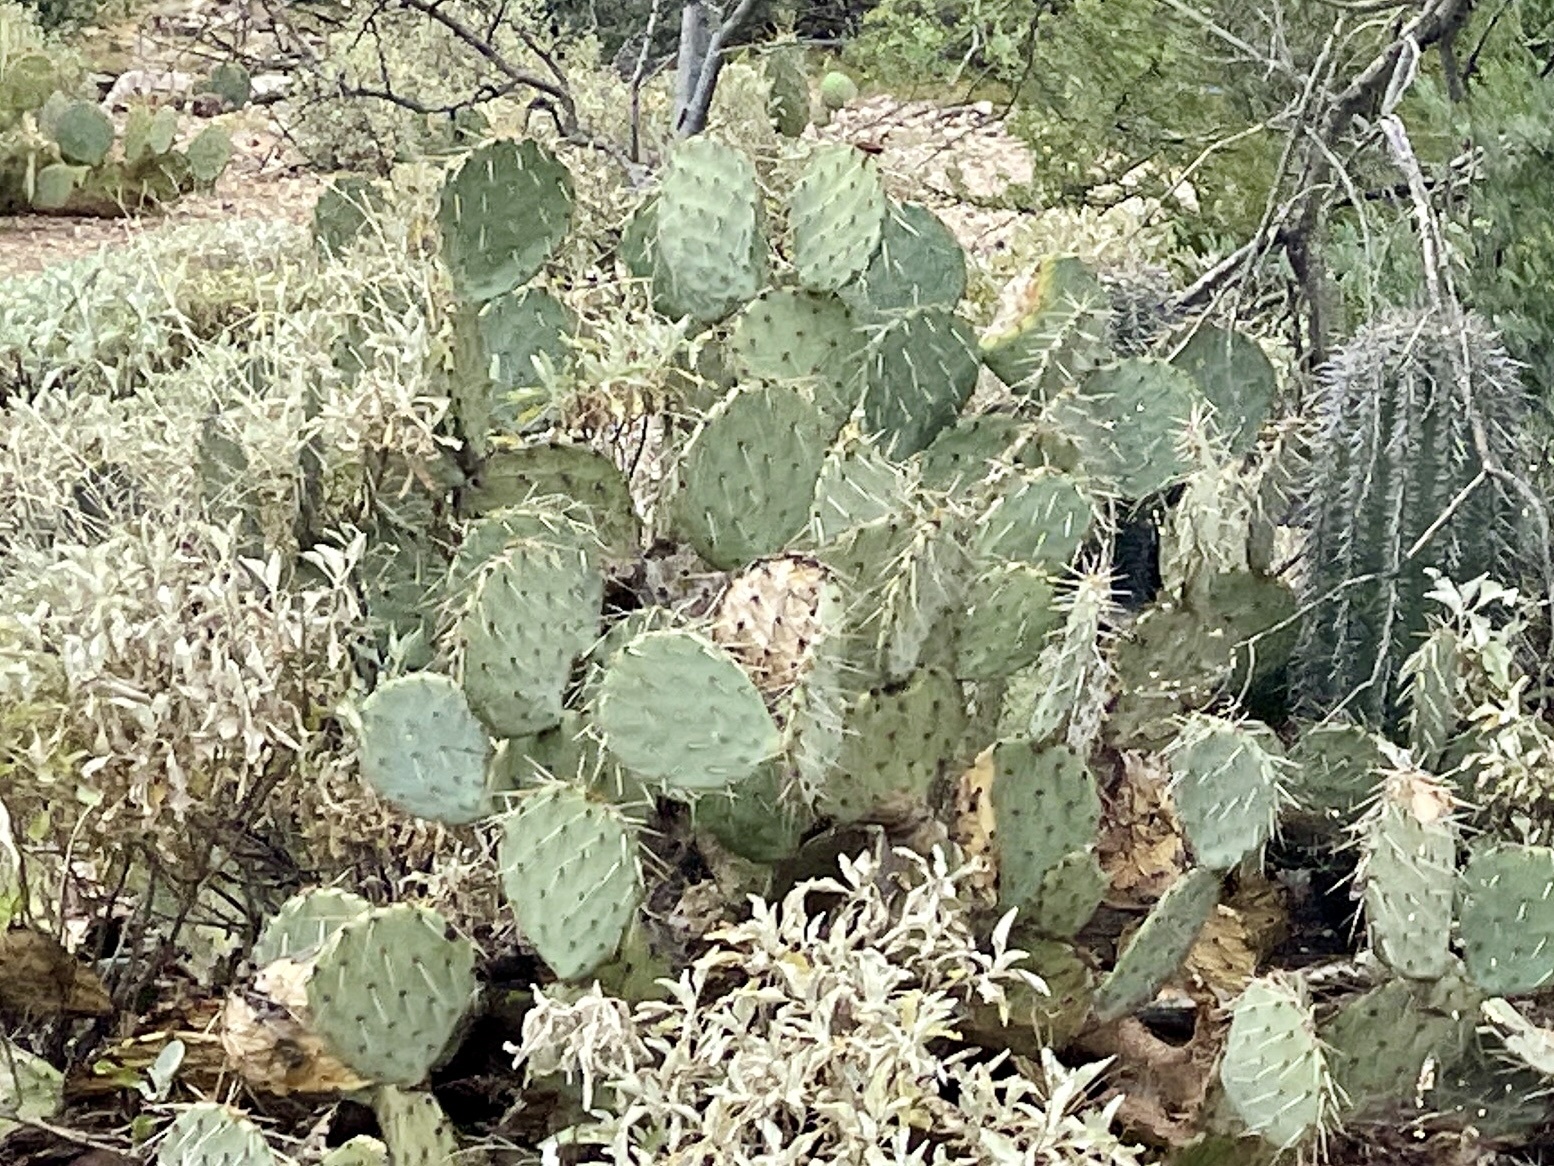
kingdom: Plantae
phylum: Tracheophyta
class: Magnoliopsida
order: Caryophyllales
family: Cactaceae
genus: Opuntia
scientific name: Opuntia engelmannii
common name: Cactus-apple
